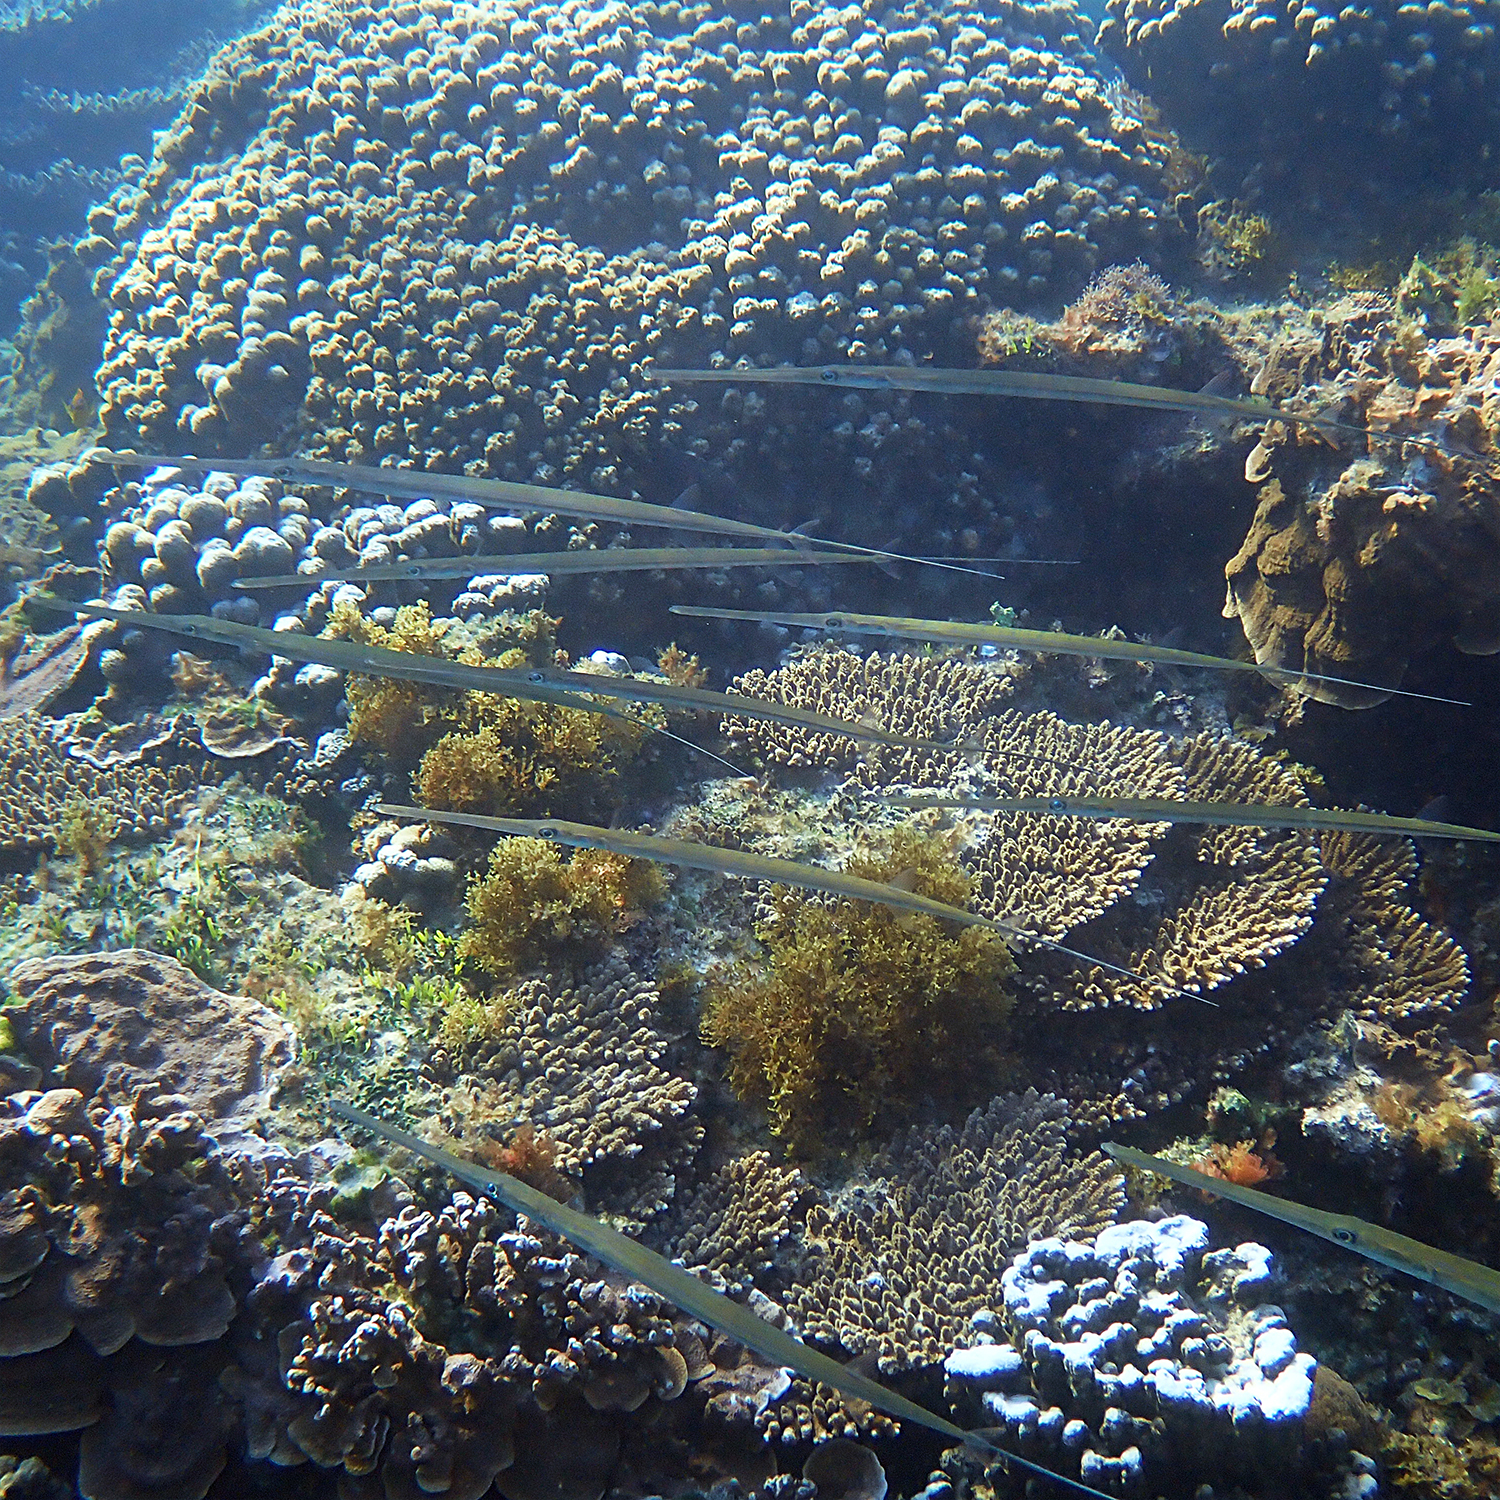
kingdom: Animalia
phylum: Chordata
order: Syngnathiformes
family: Fistulariidae
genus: Fistularia
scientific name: Fistularia commersonii
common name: Bluespotted cornetfish
